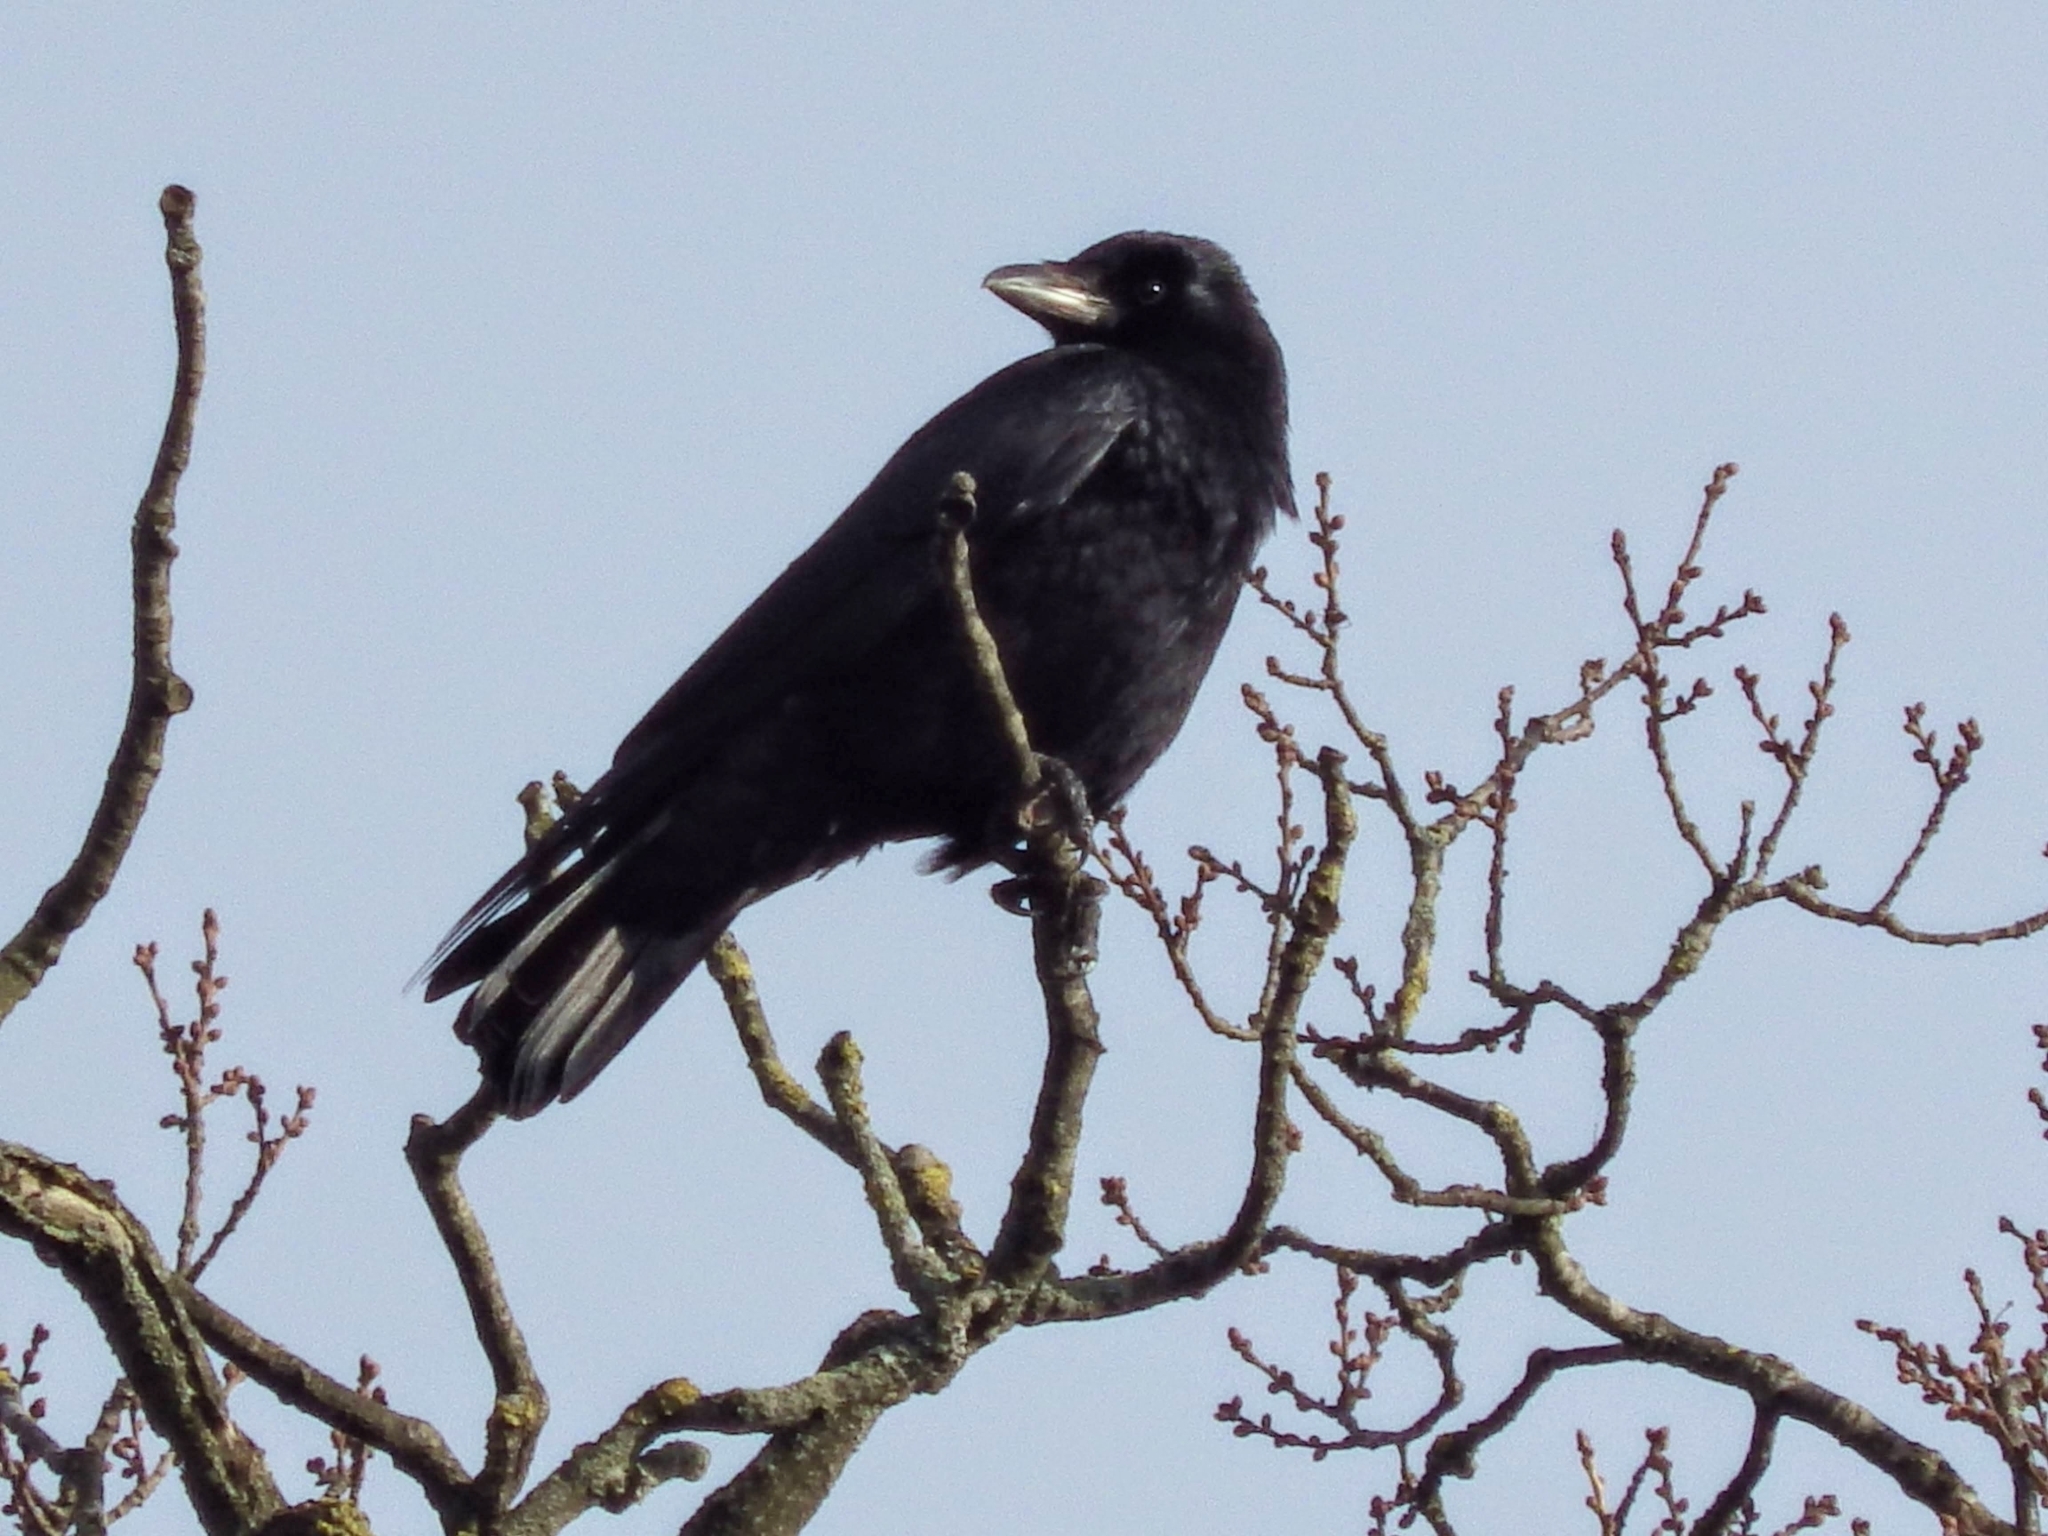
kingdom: Animalia
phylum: Chordata
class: Aves
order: Passeriformes
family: Corvidae
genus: Corvus
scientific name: Corvus corone
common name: Carrion crow
